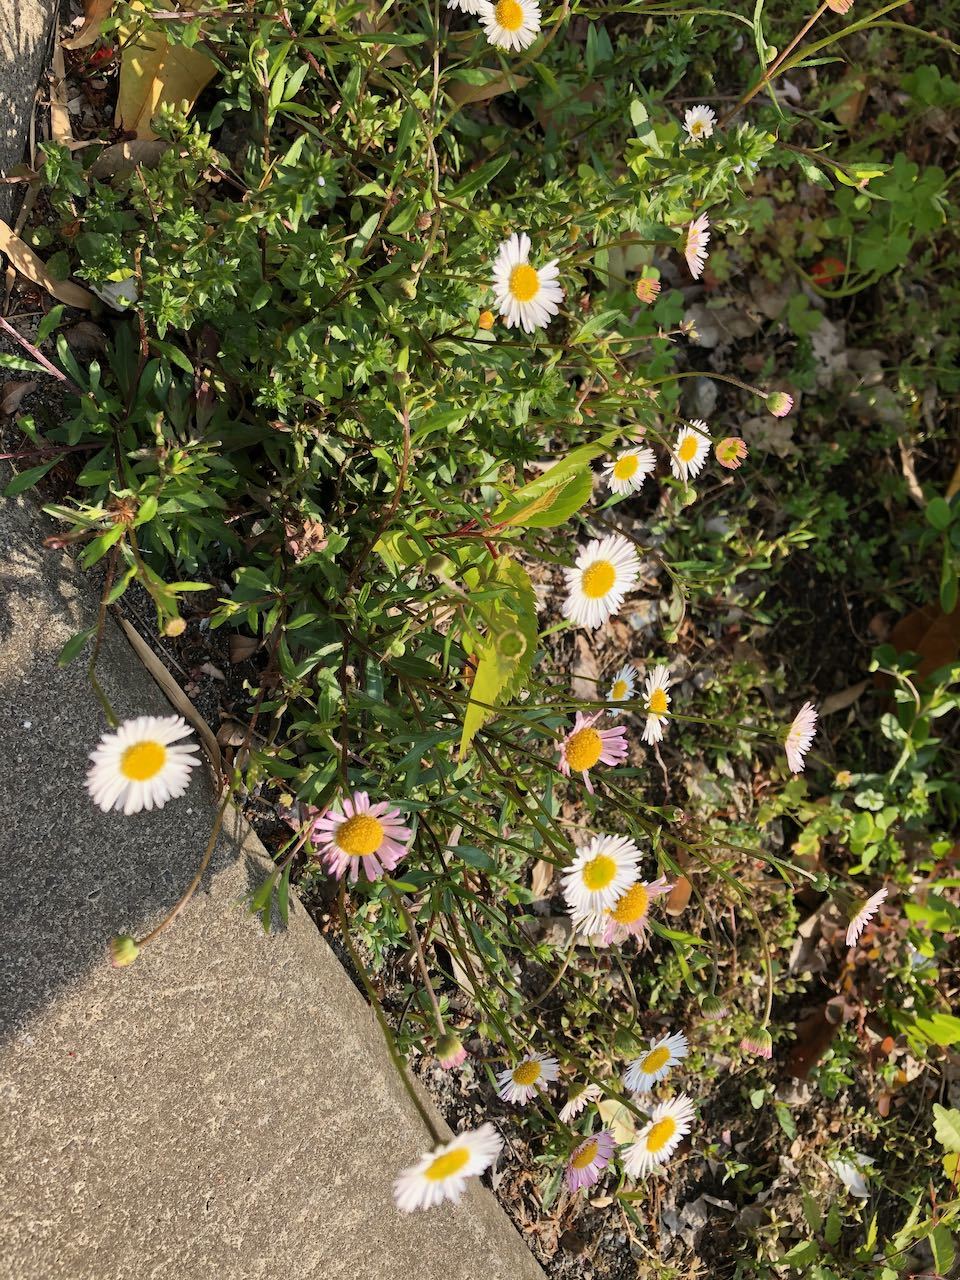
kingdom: Plantae
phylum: Tracheophyta
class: Magnoliopsida
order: Asterales
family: Asteraceae
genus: Erigeron
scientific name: Erigeron karvinskianus
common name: Mexican fleabane
